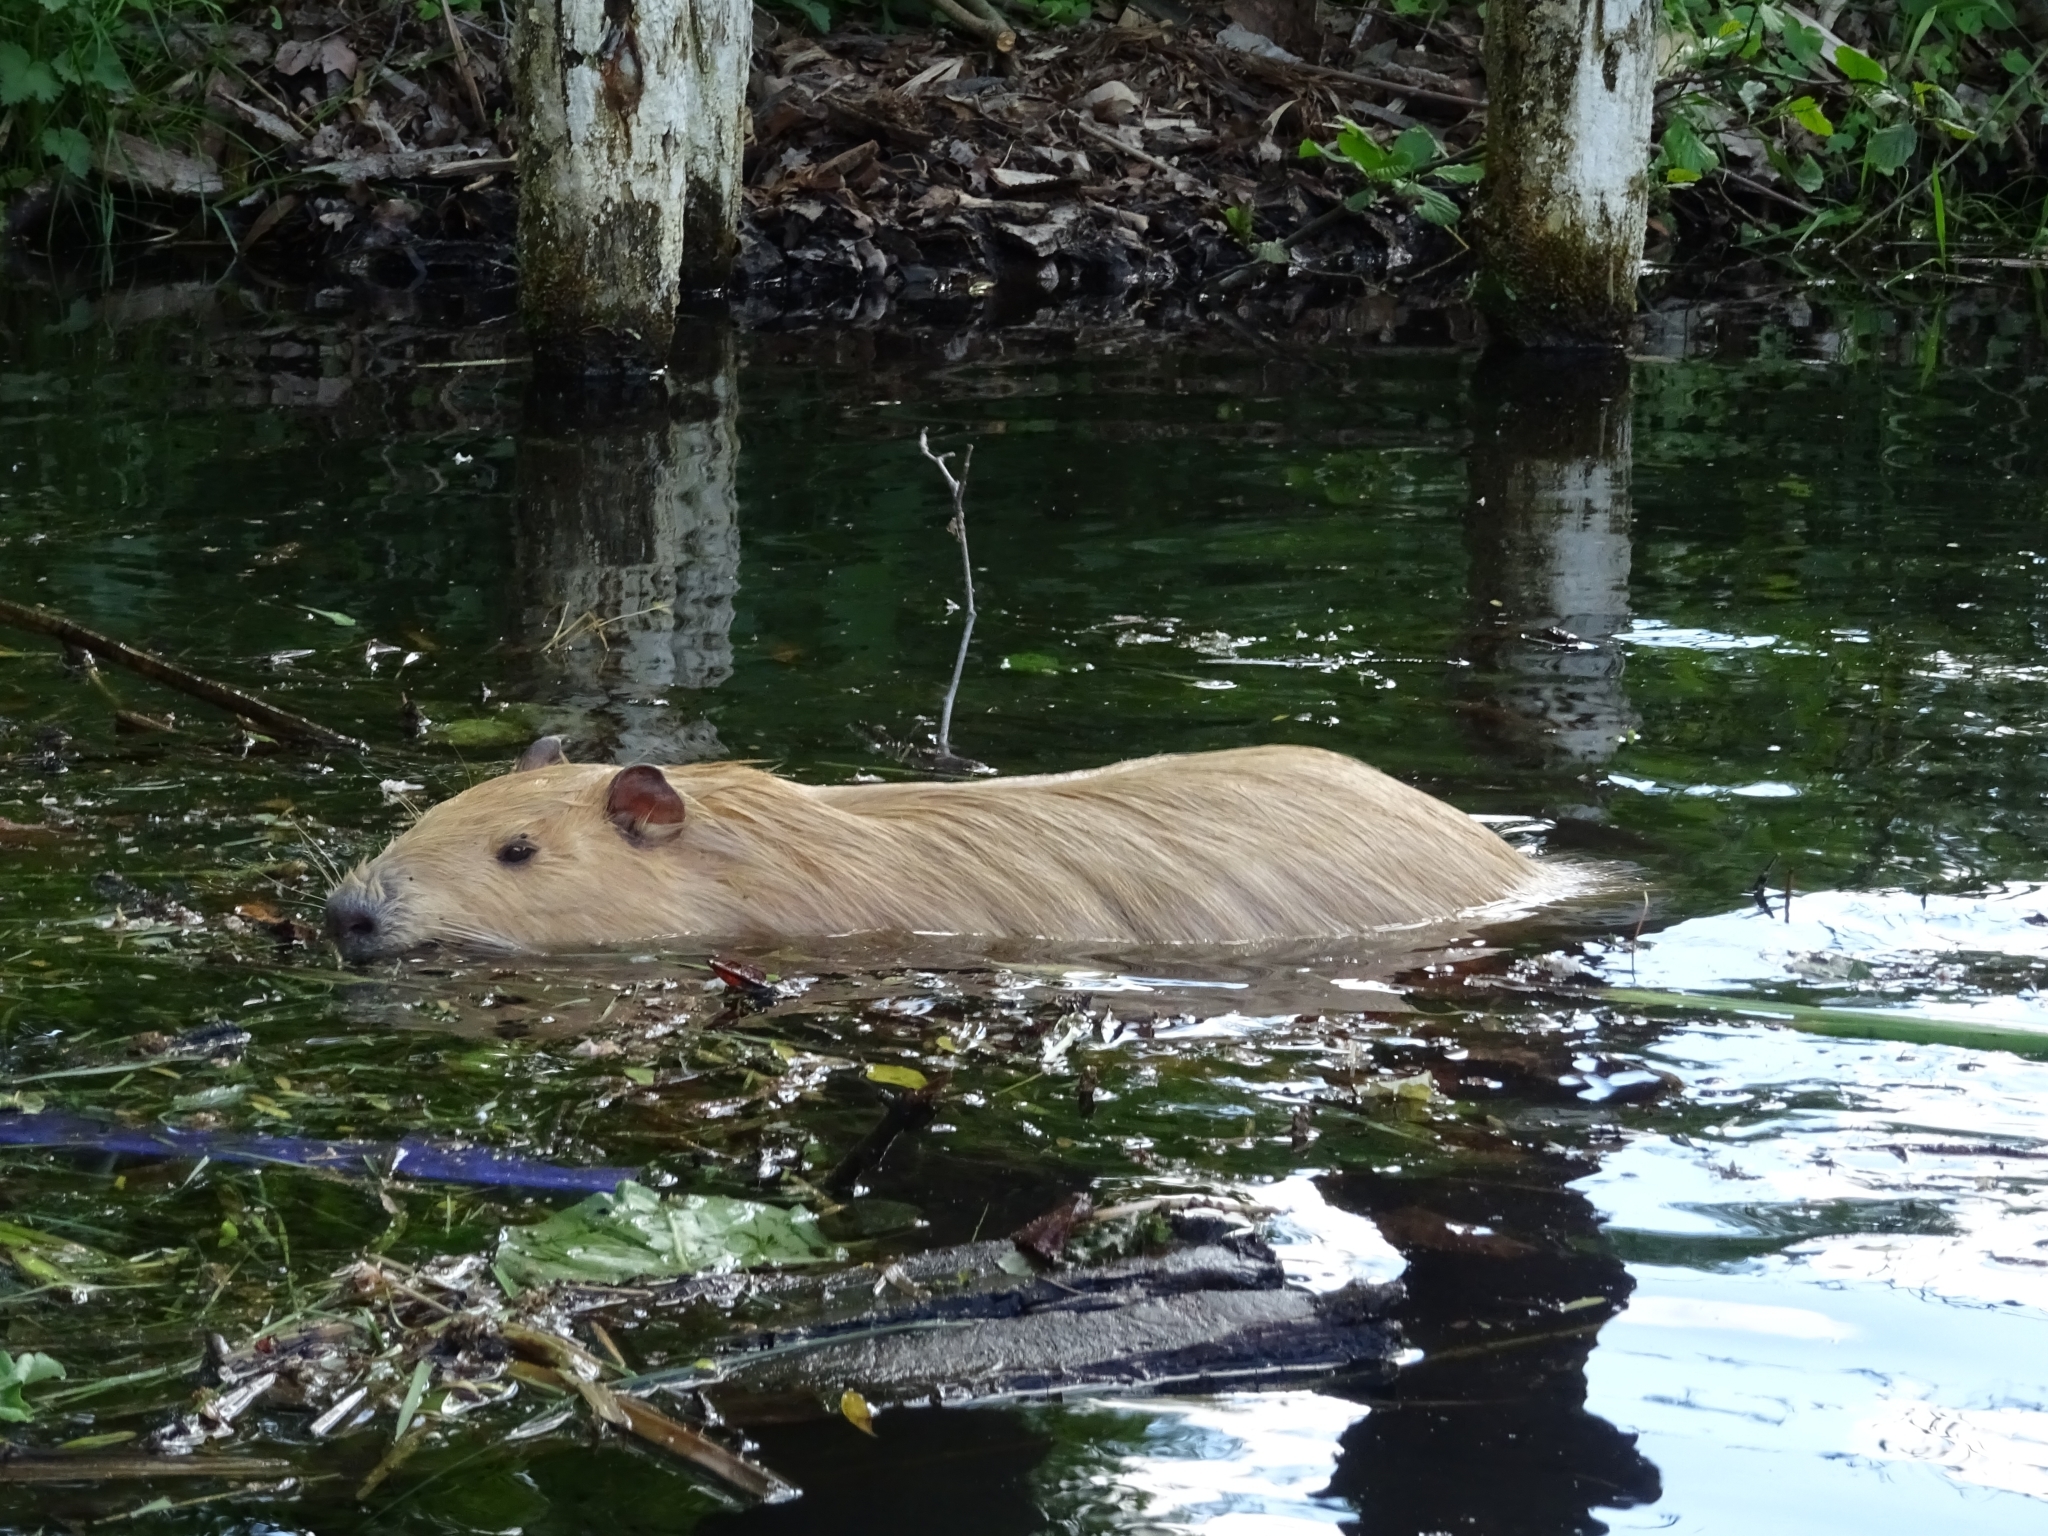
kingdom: Animalia
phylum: Chordata
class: Mammalia
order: Rodentia
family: Myocastoridae
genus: Myocastor
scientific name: Myocastor coypus
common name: Coypu
